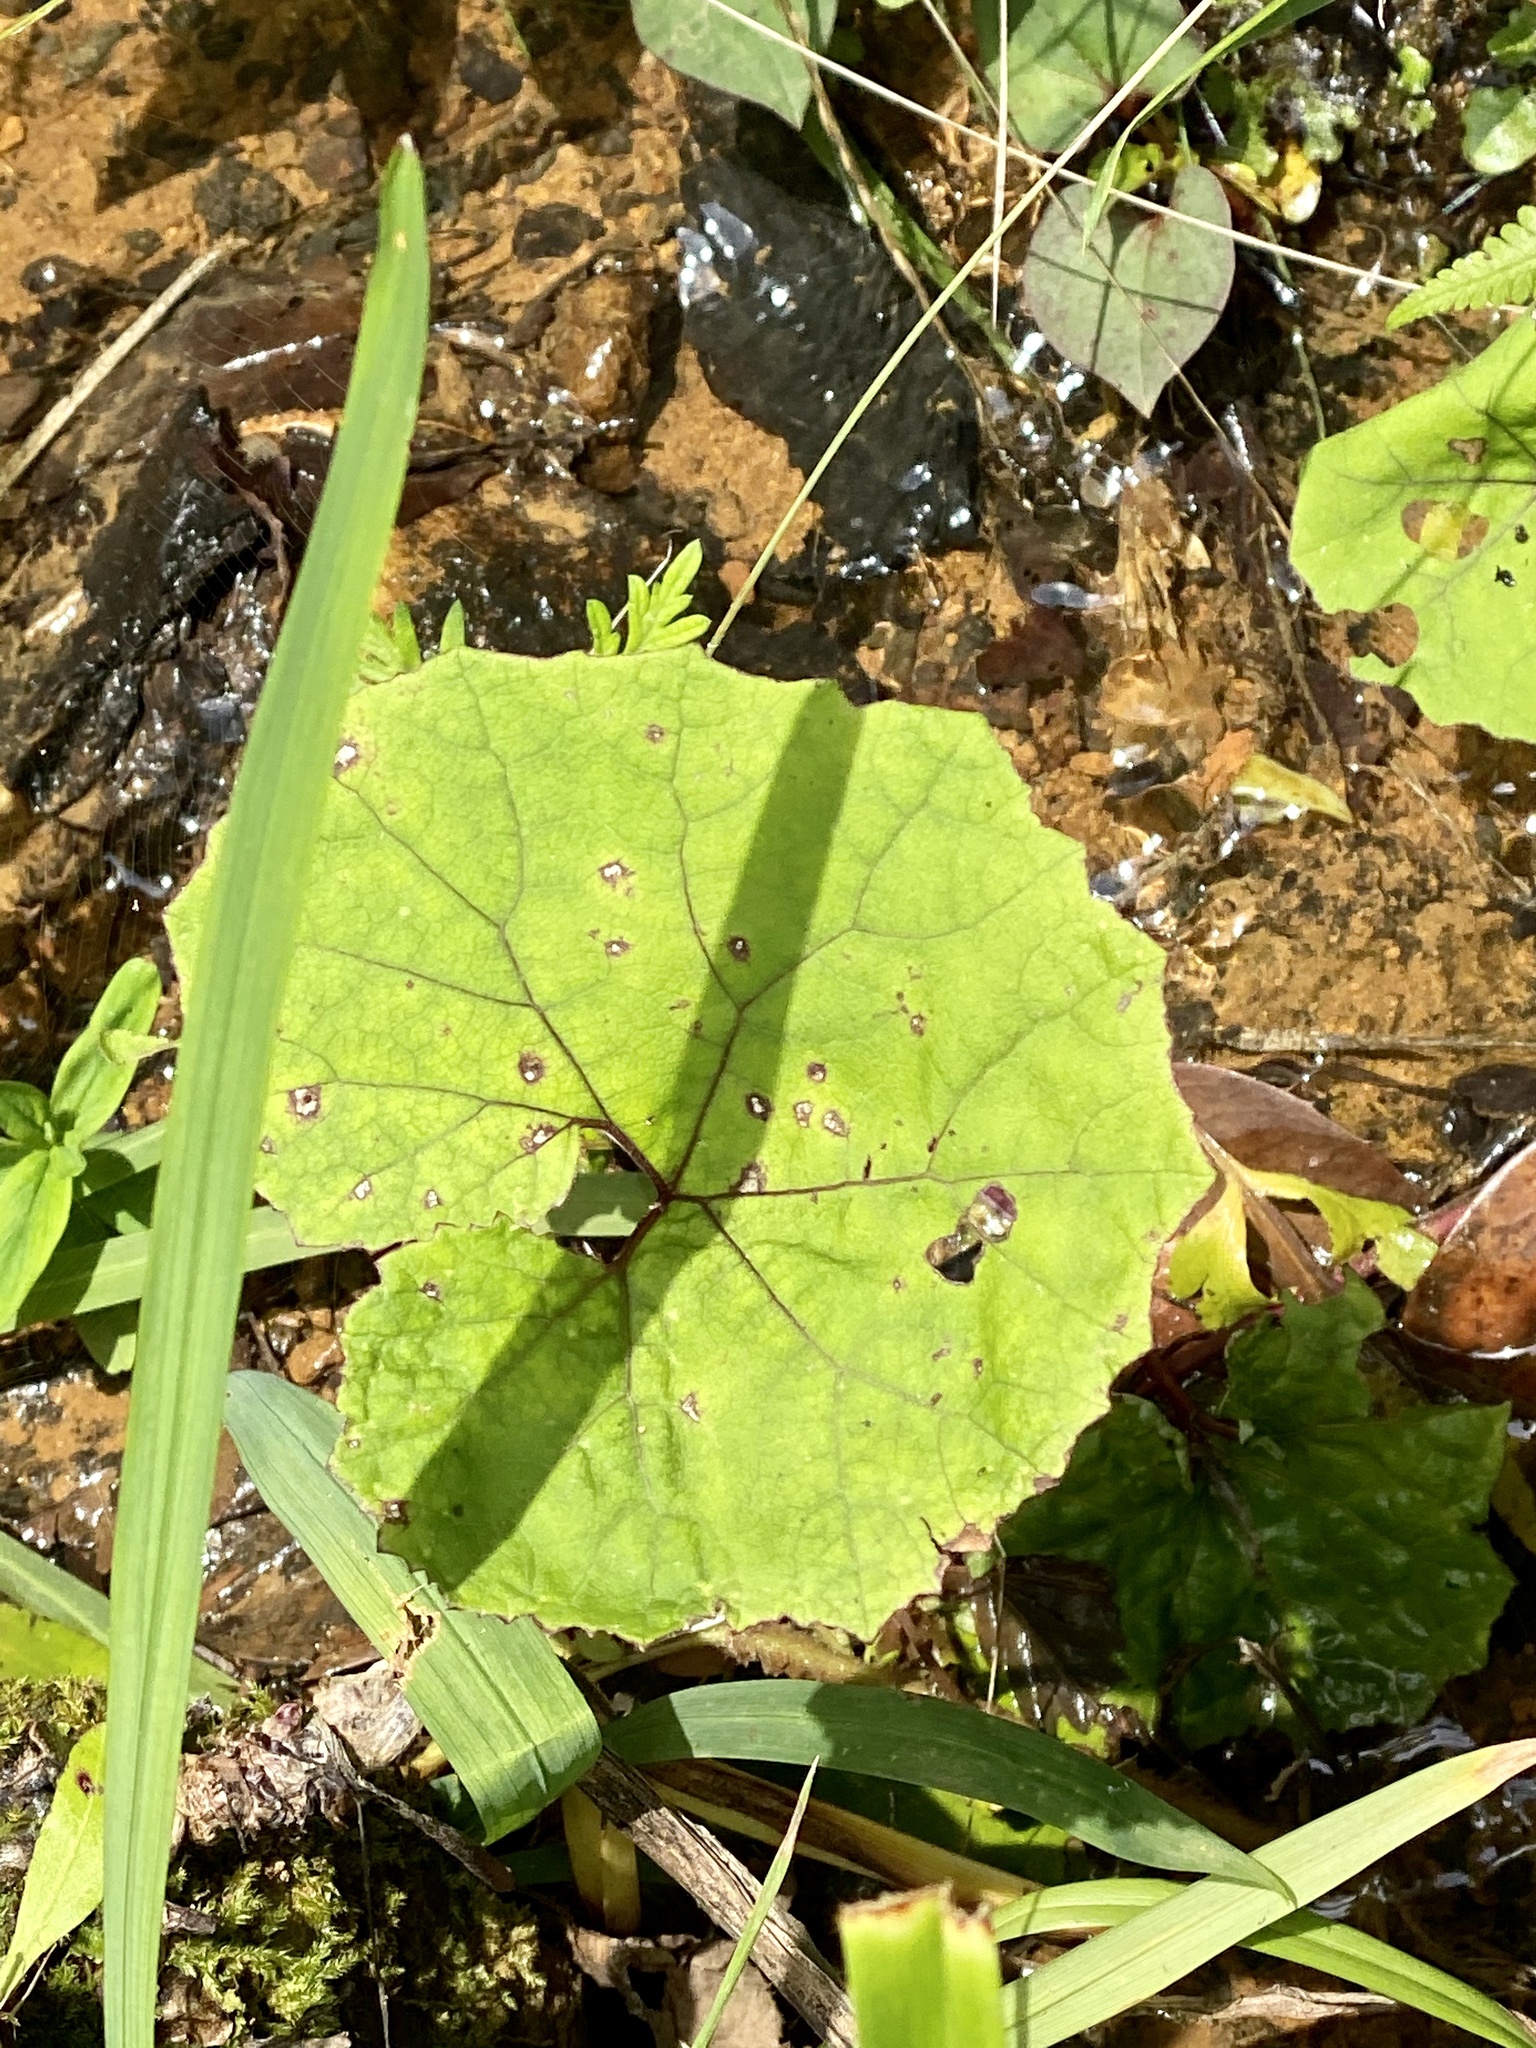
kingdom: Plantae
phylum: Tracheophyta
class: Magnoliopsida
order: Asterales
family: Asteraceae
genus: Petasites
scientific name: Petasites japonicus
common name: Giant butterbur
